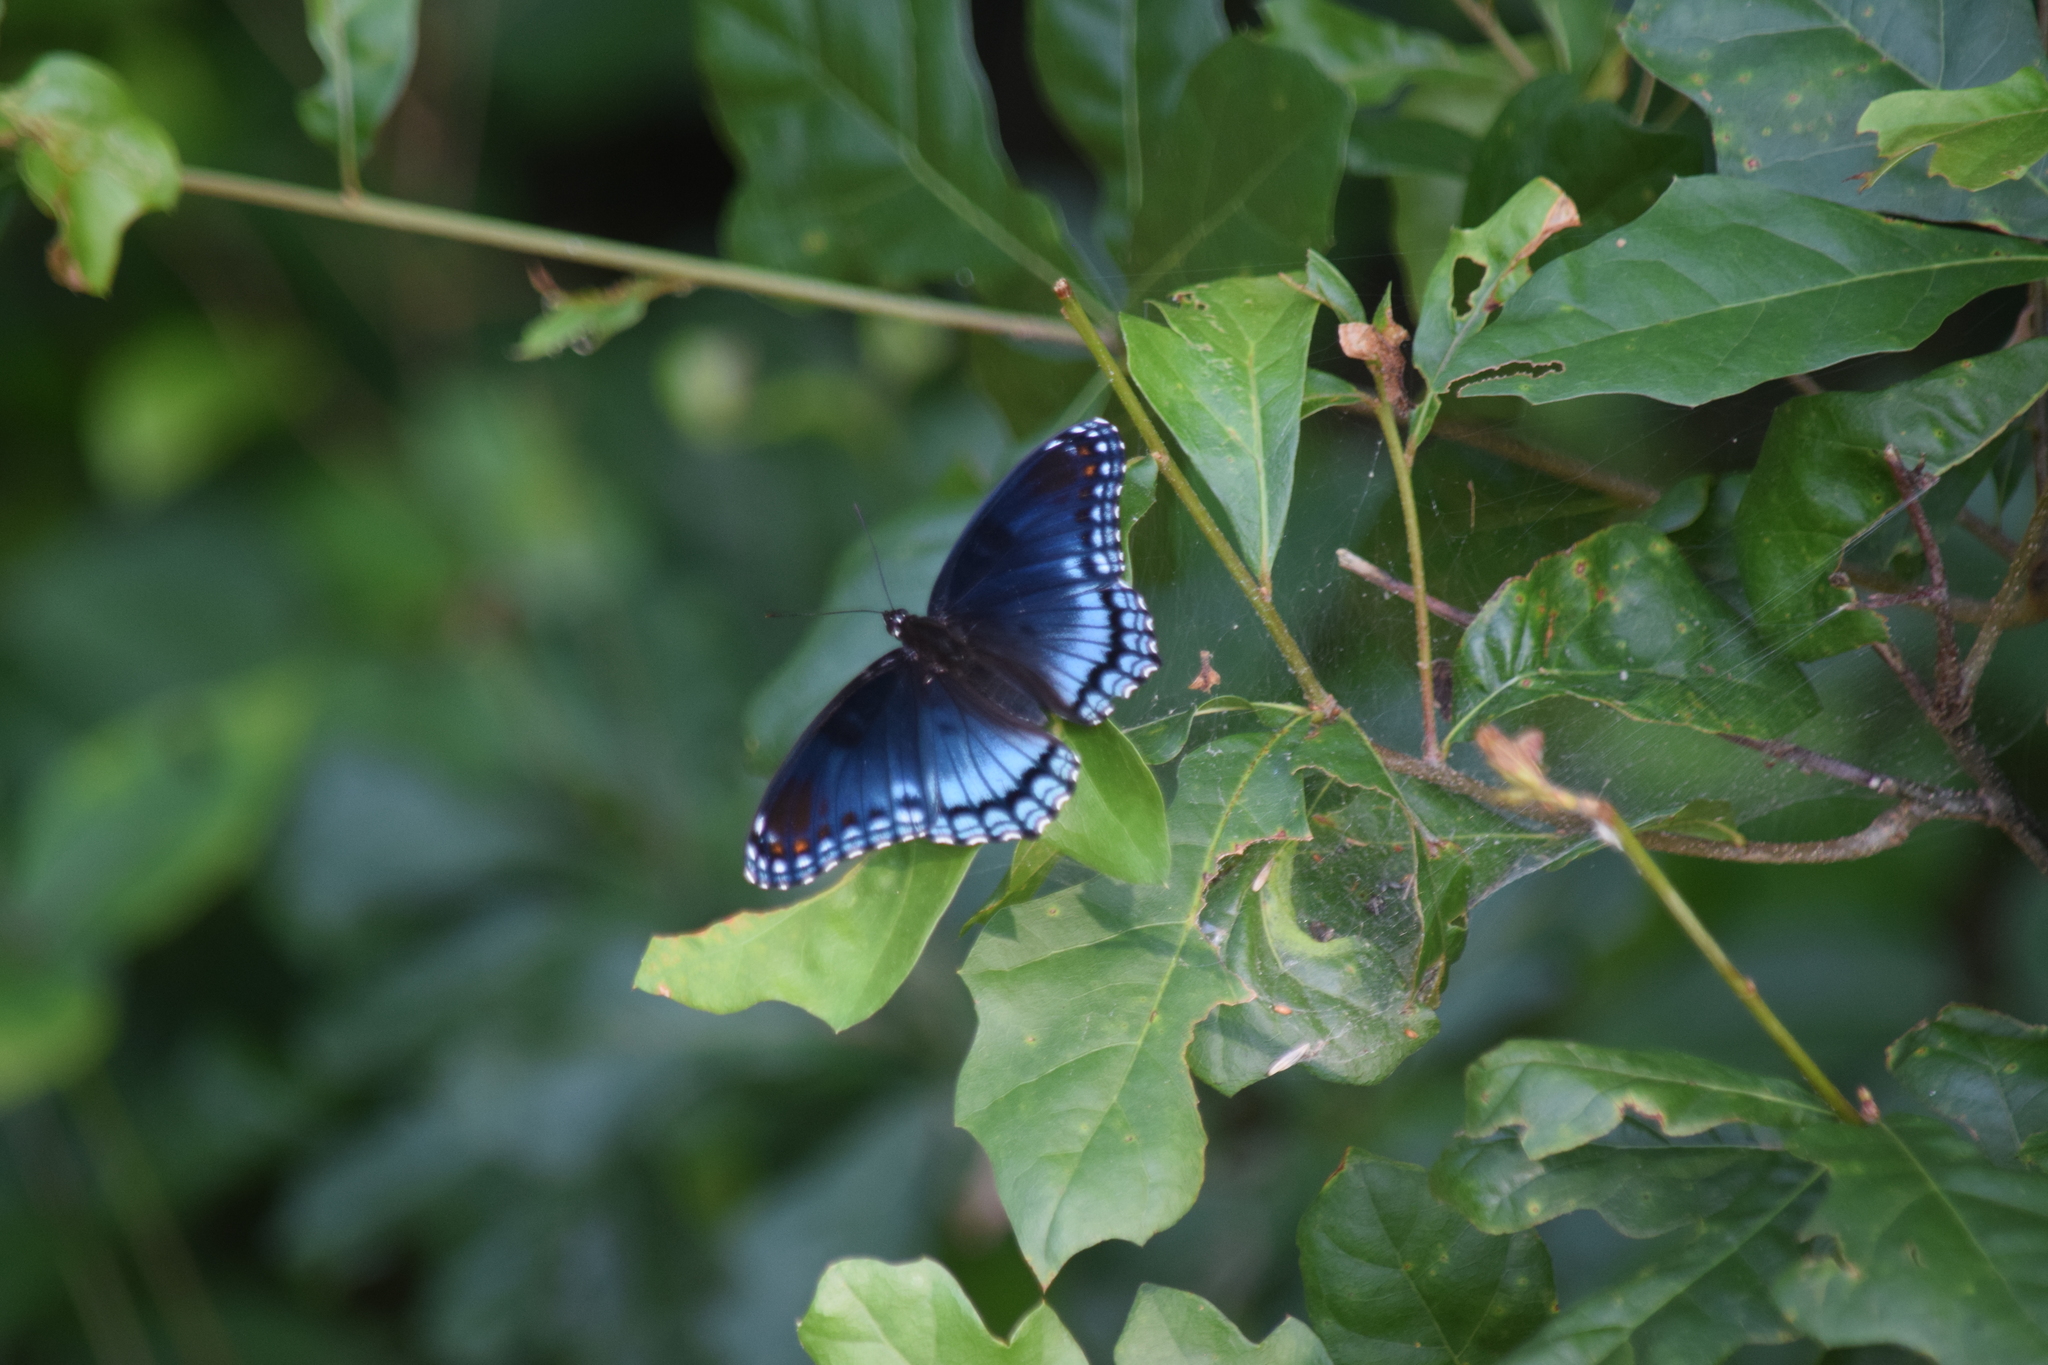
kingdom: Animalia
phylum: Arthropoda
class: Insecta
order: Lepidoptera
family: Nymphalidae
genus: Limenitis
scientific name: Limenitis astyanax
